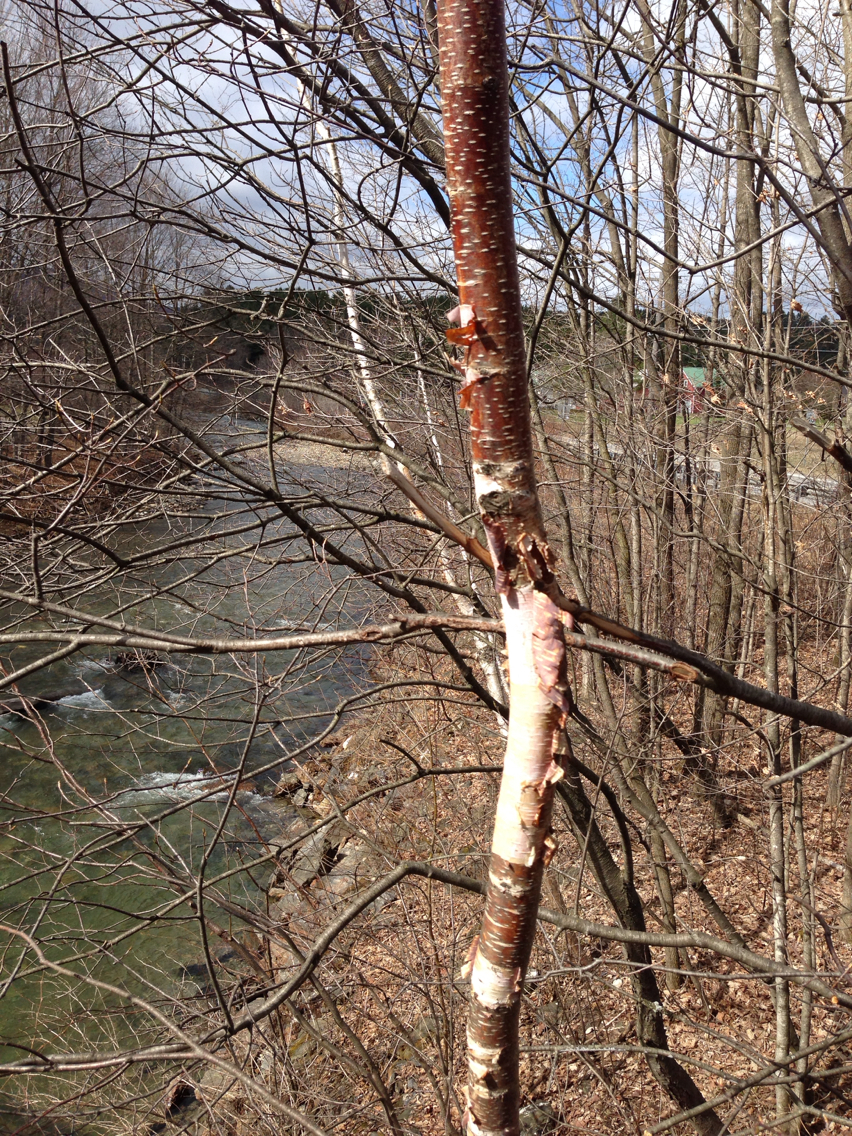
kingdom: Plantae
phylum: Tracheophyta
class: Magnoliopsida
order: Fagales
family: Betulaceae
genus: Betula
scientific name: Betula papyrifera
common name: Paper birch
